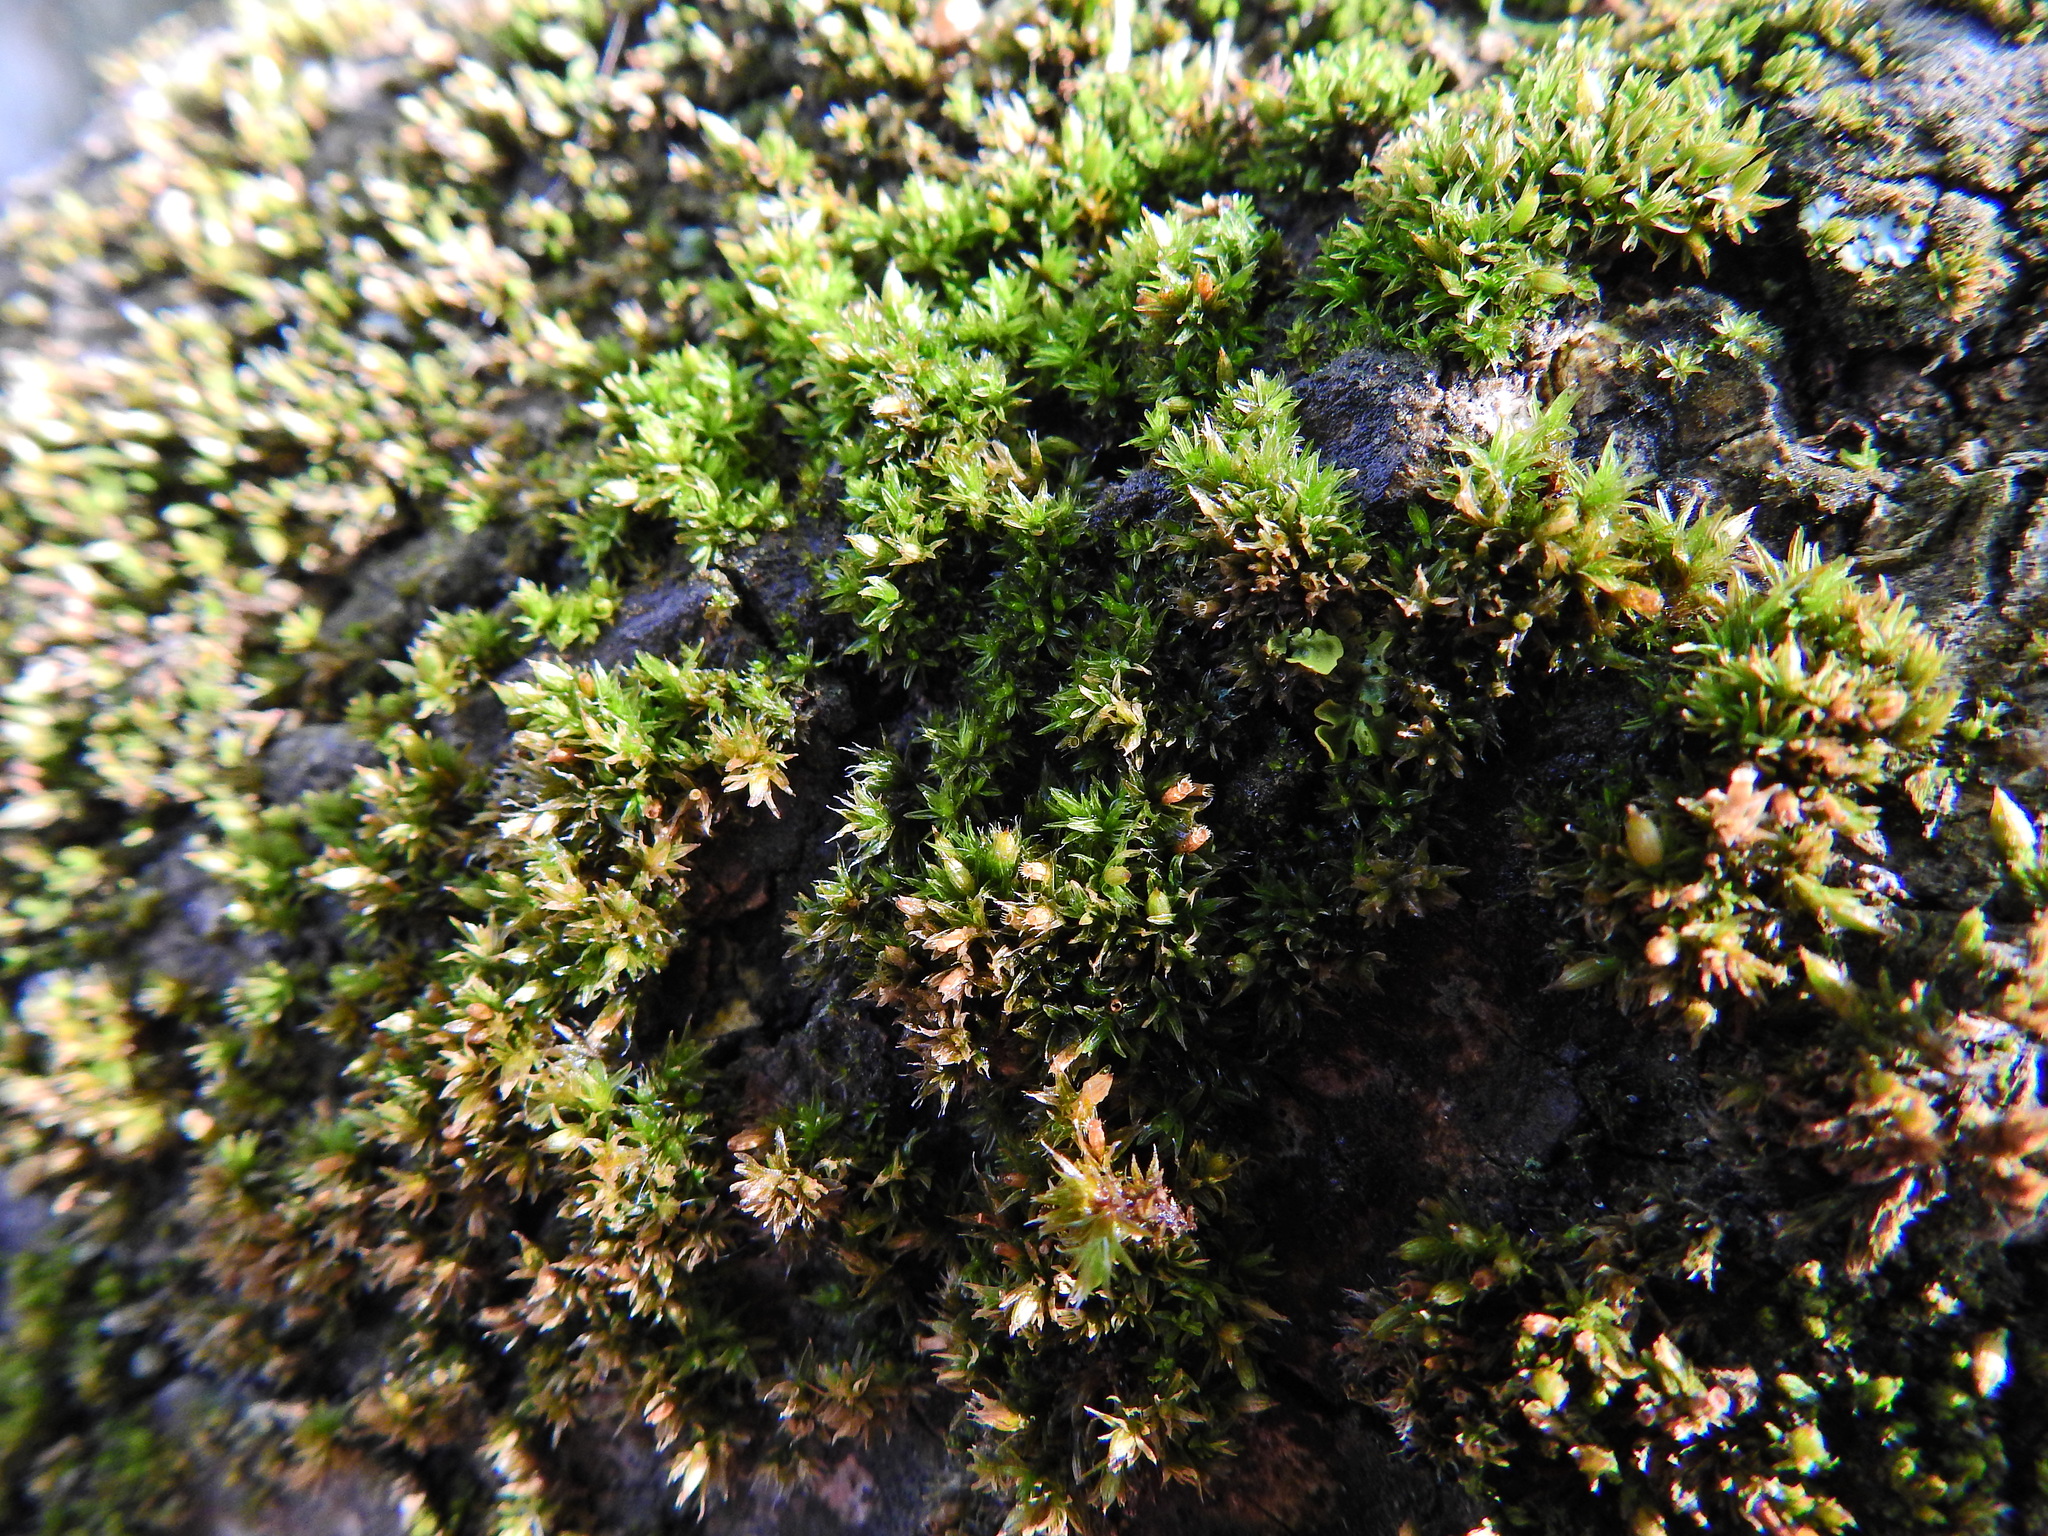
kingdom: Plantae
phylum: Bryophyta
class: Bryopsida
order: Orthotrichales
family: Orthotrichaceae
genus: Orthotrichum
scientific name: Orthotrichum diaphanum
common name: White-tipped bristle-moss
